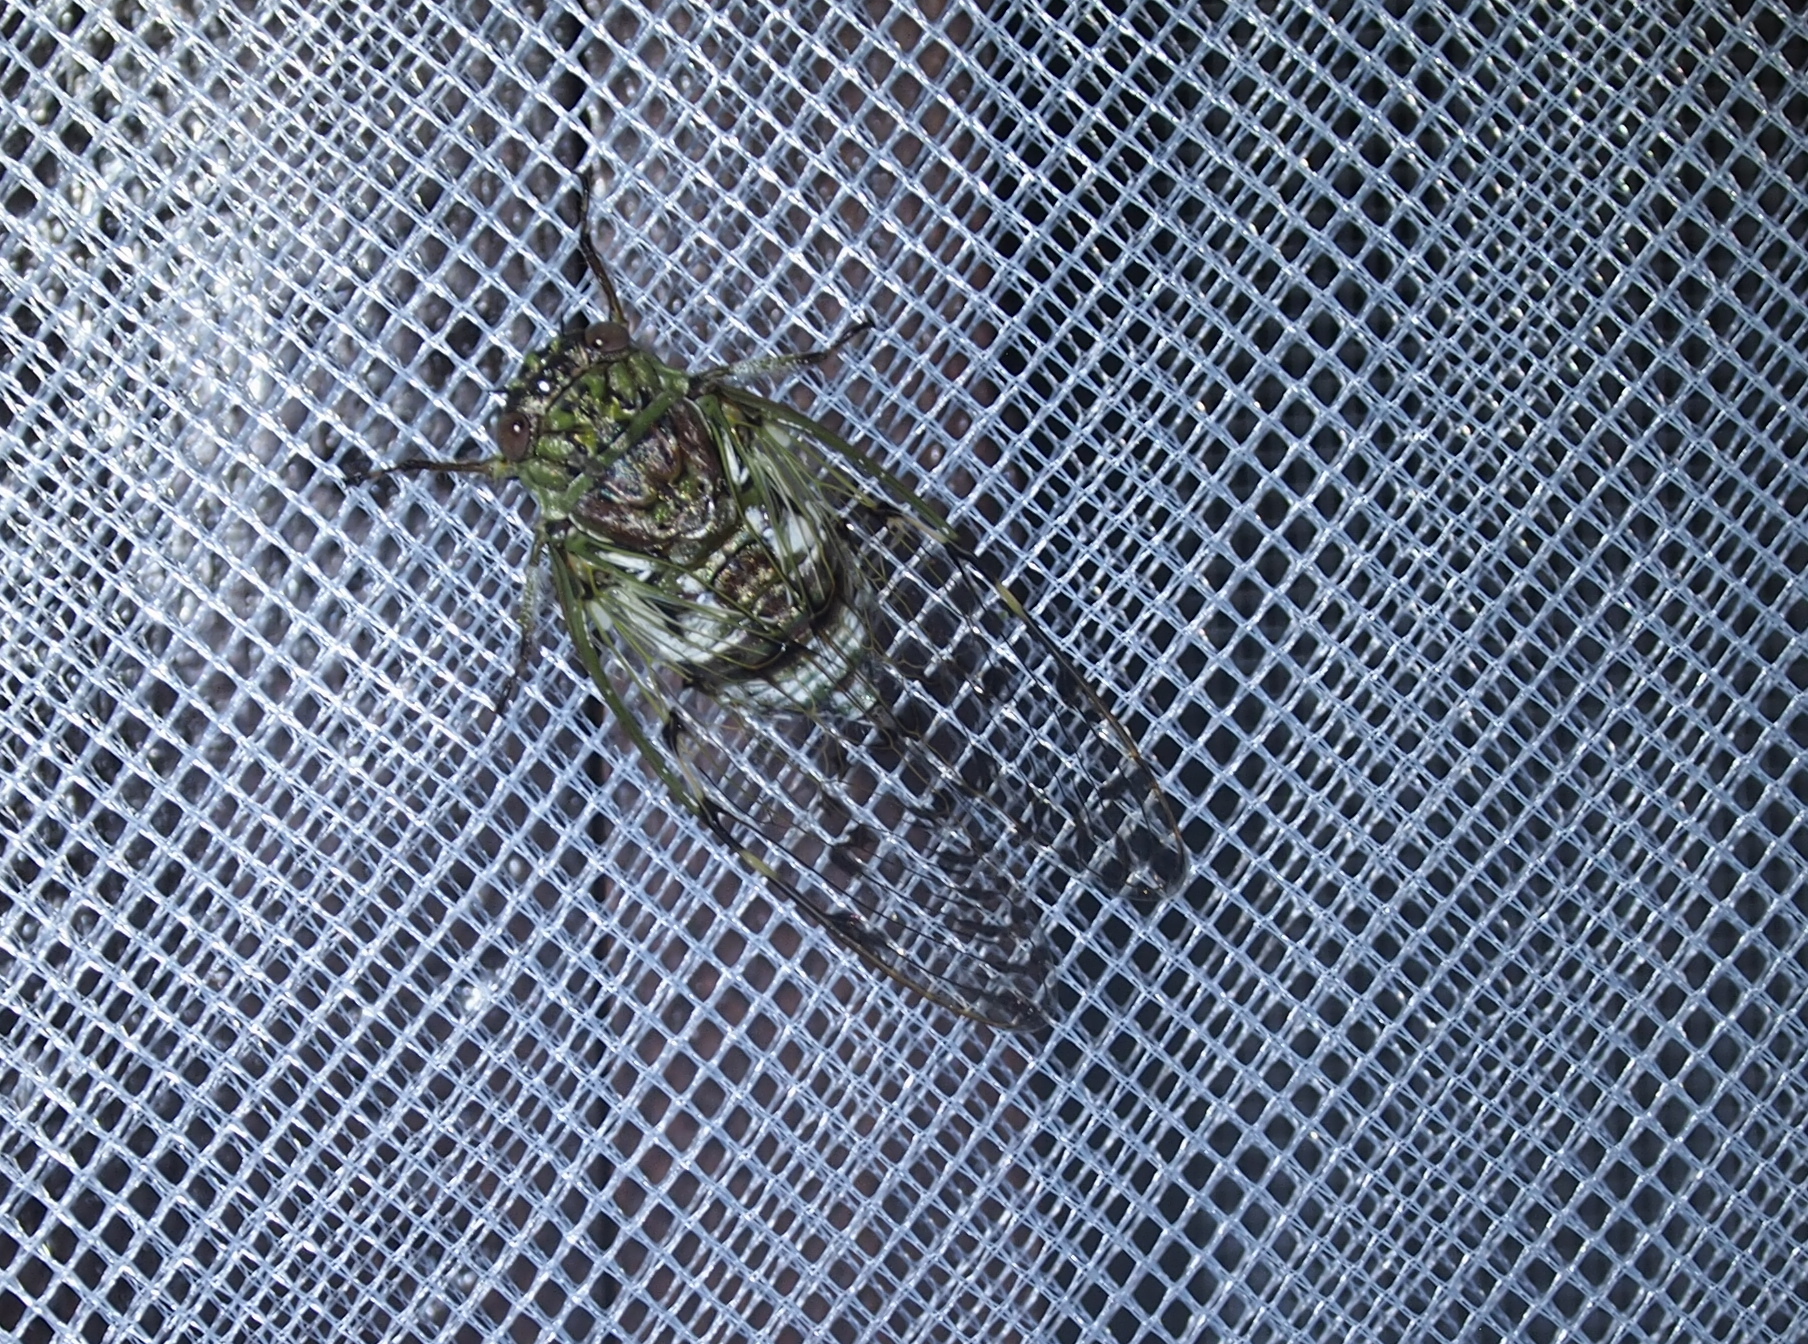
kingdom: Animalia
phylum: Arthropoda
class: Insecta
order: Hemiptera
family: Cicadidae
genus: Proarna
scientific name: Proarna sallei
